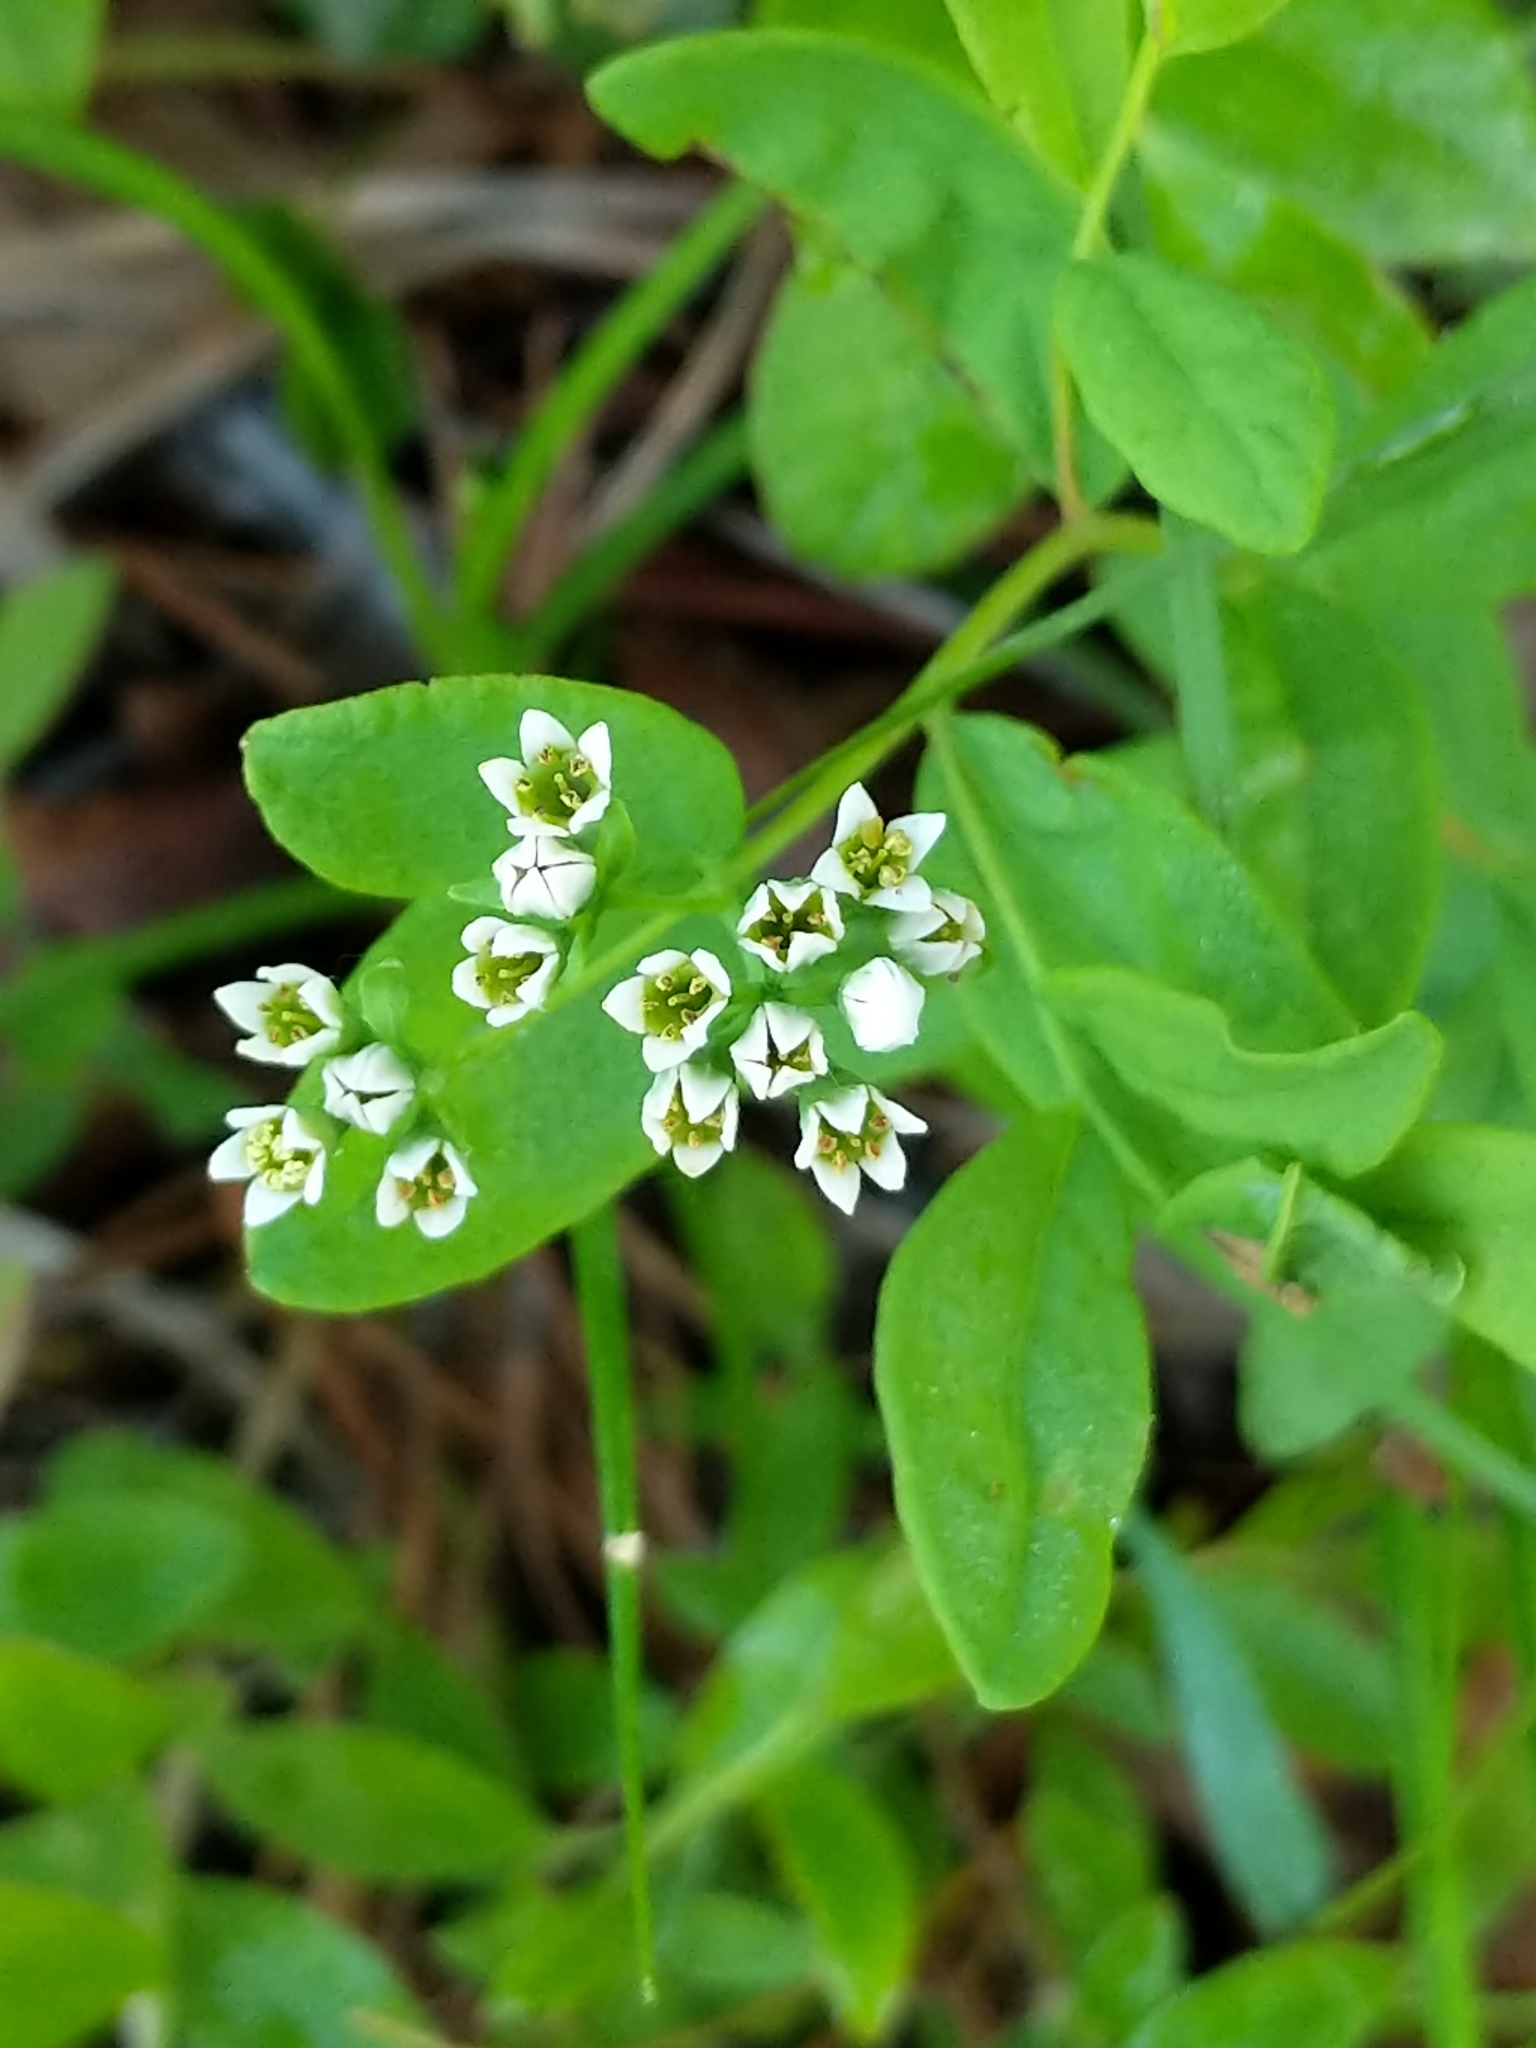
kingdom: Plantae
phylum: Tracheophyta
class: Magnoliopsida
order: Santalales
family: Comandraceae
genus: Comandra
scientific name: Comandra umbellata
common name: Bastard toadflax
